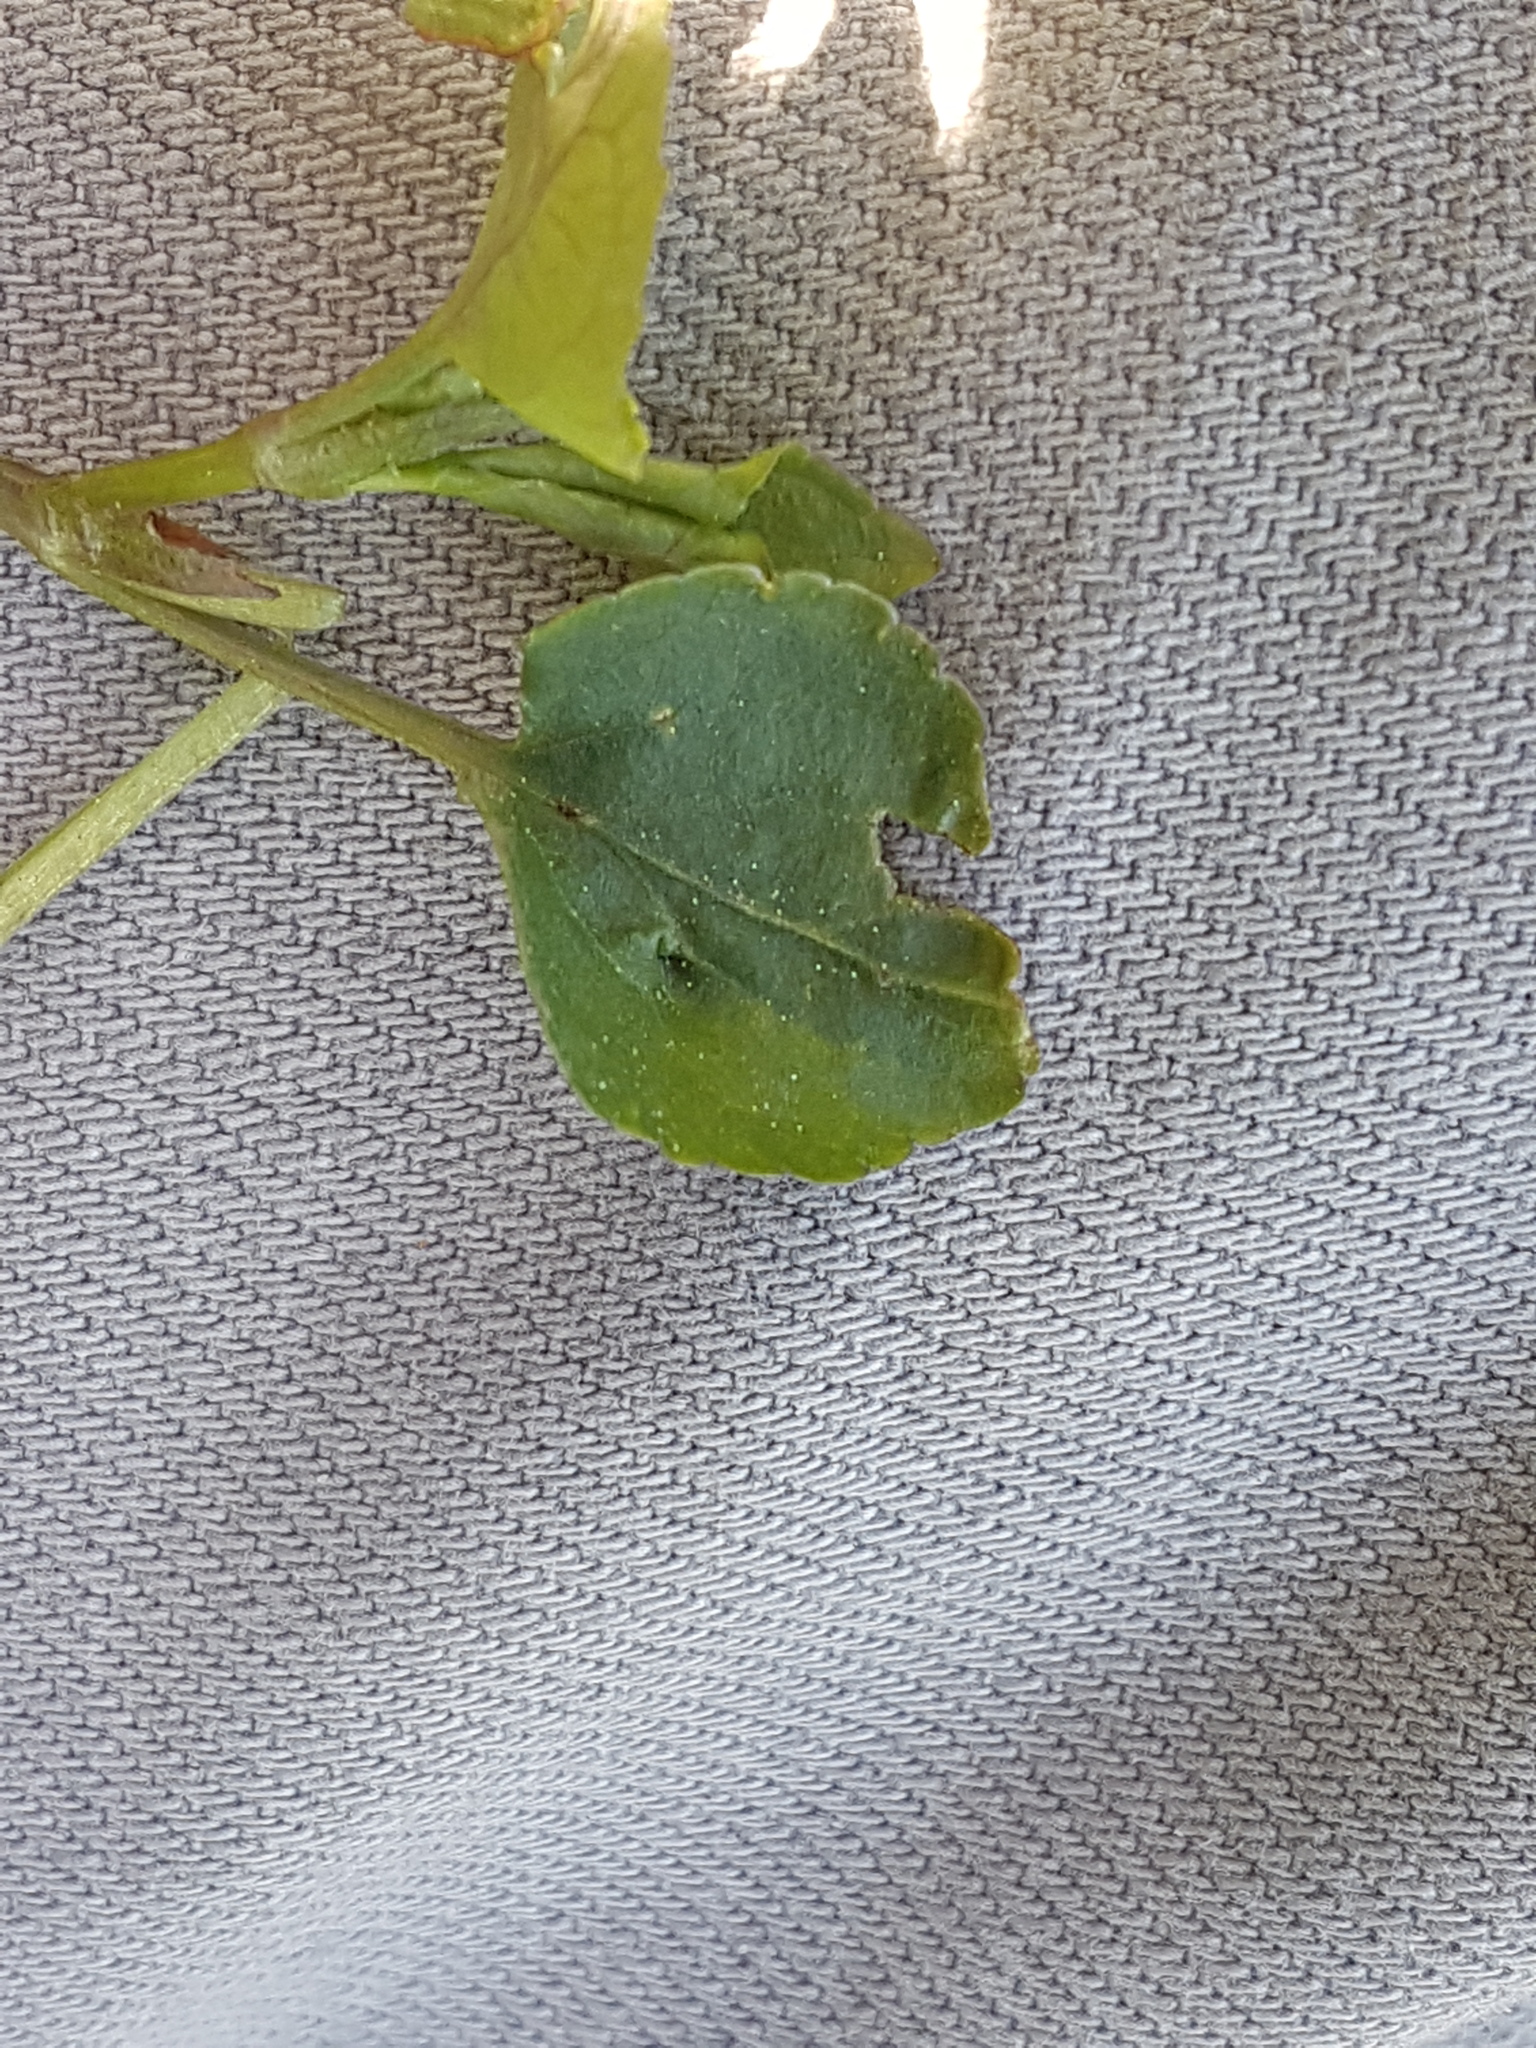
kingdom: Plantae
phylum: Tracheophyta
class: Magnoliopsida
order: Malpighiales
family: Violaceae
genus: Viola
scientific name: Viola riviniana
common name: Common dog-violet
